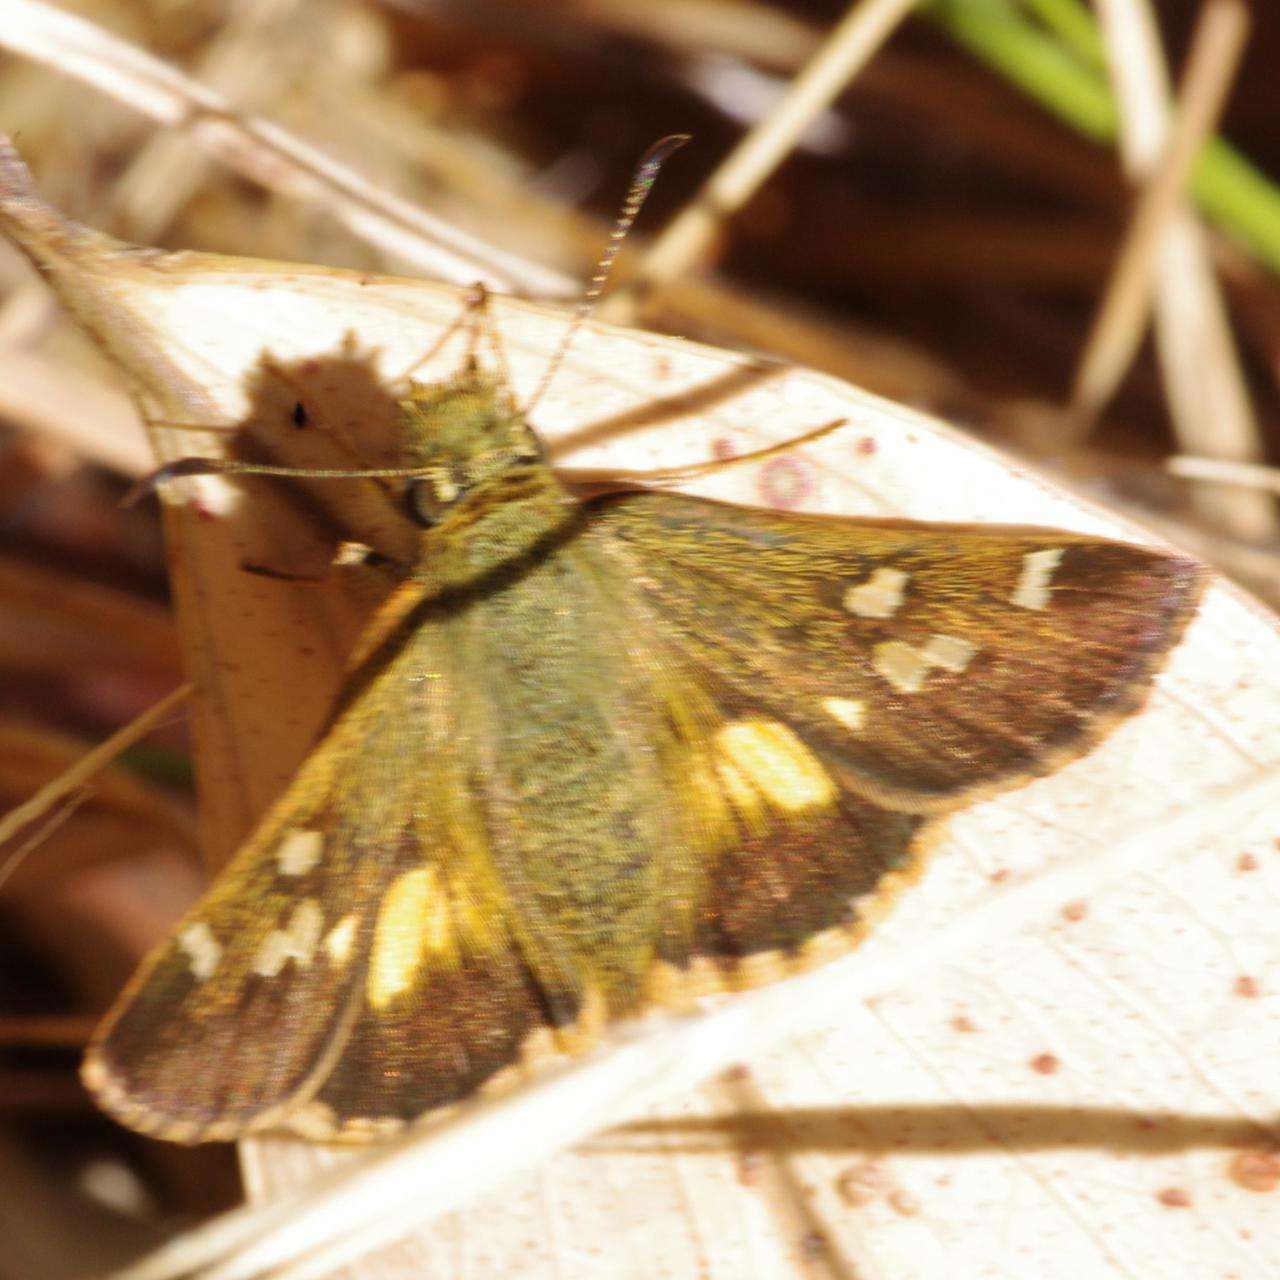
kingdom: Animalia
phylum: Arthropoda
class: Insecta
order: Lepidoptera
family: Hesperiidae
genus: Dispar
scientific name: Dispar compacta
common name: Barred skipper
